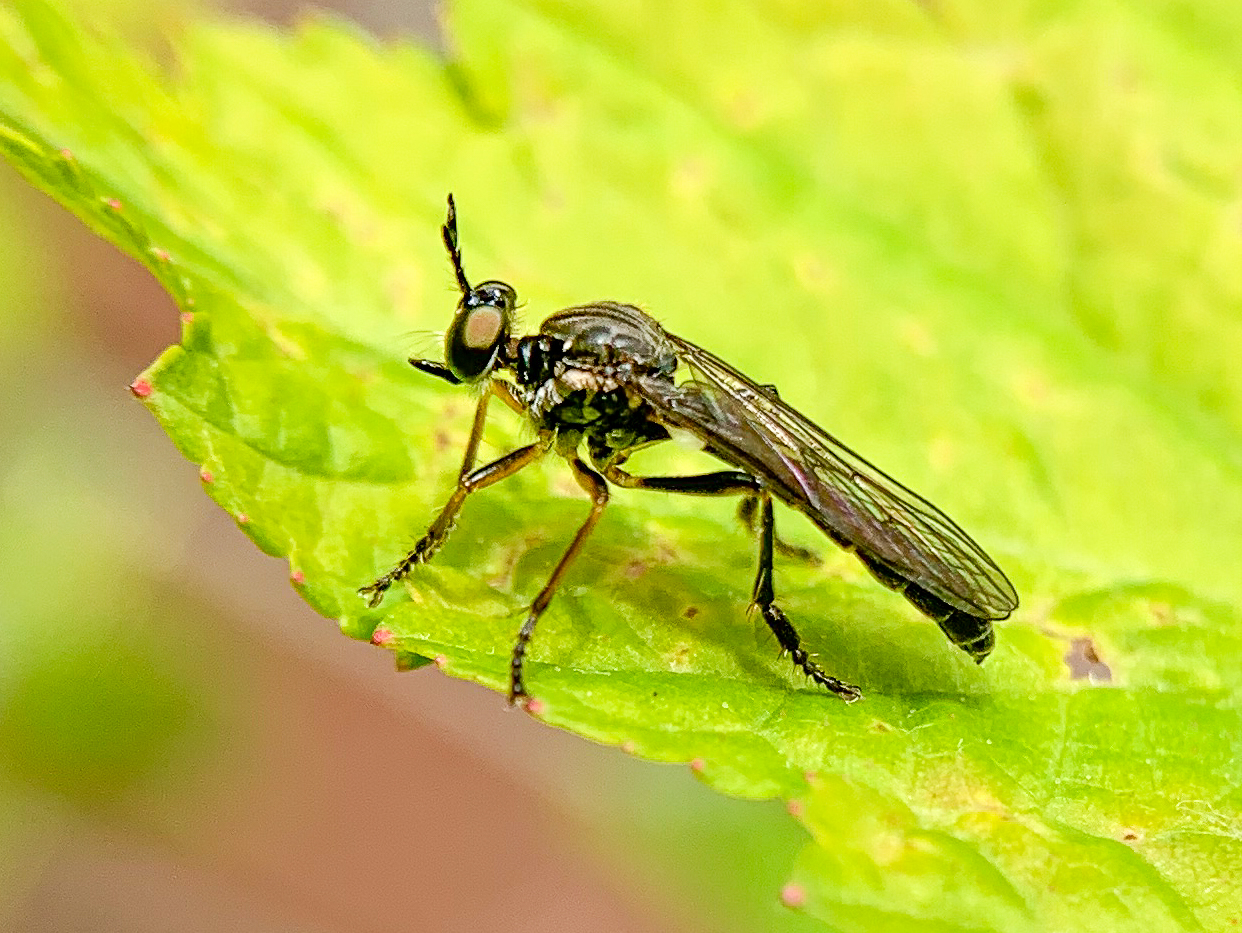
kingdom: Animalia
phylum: Arthropoda
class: Insecta
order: Diptera
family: Asilidae
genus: Dioctria
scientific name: Dioctria hyalipennis
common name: Stripe-legged robberfly
